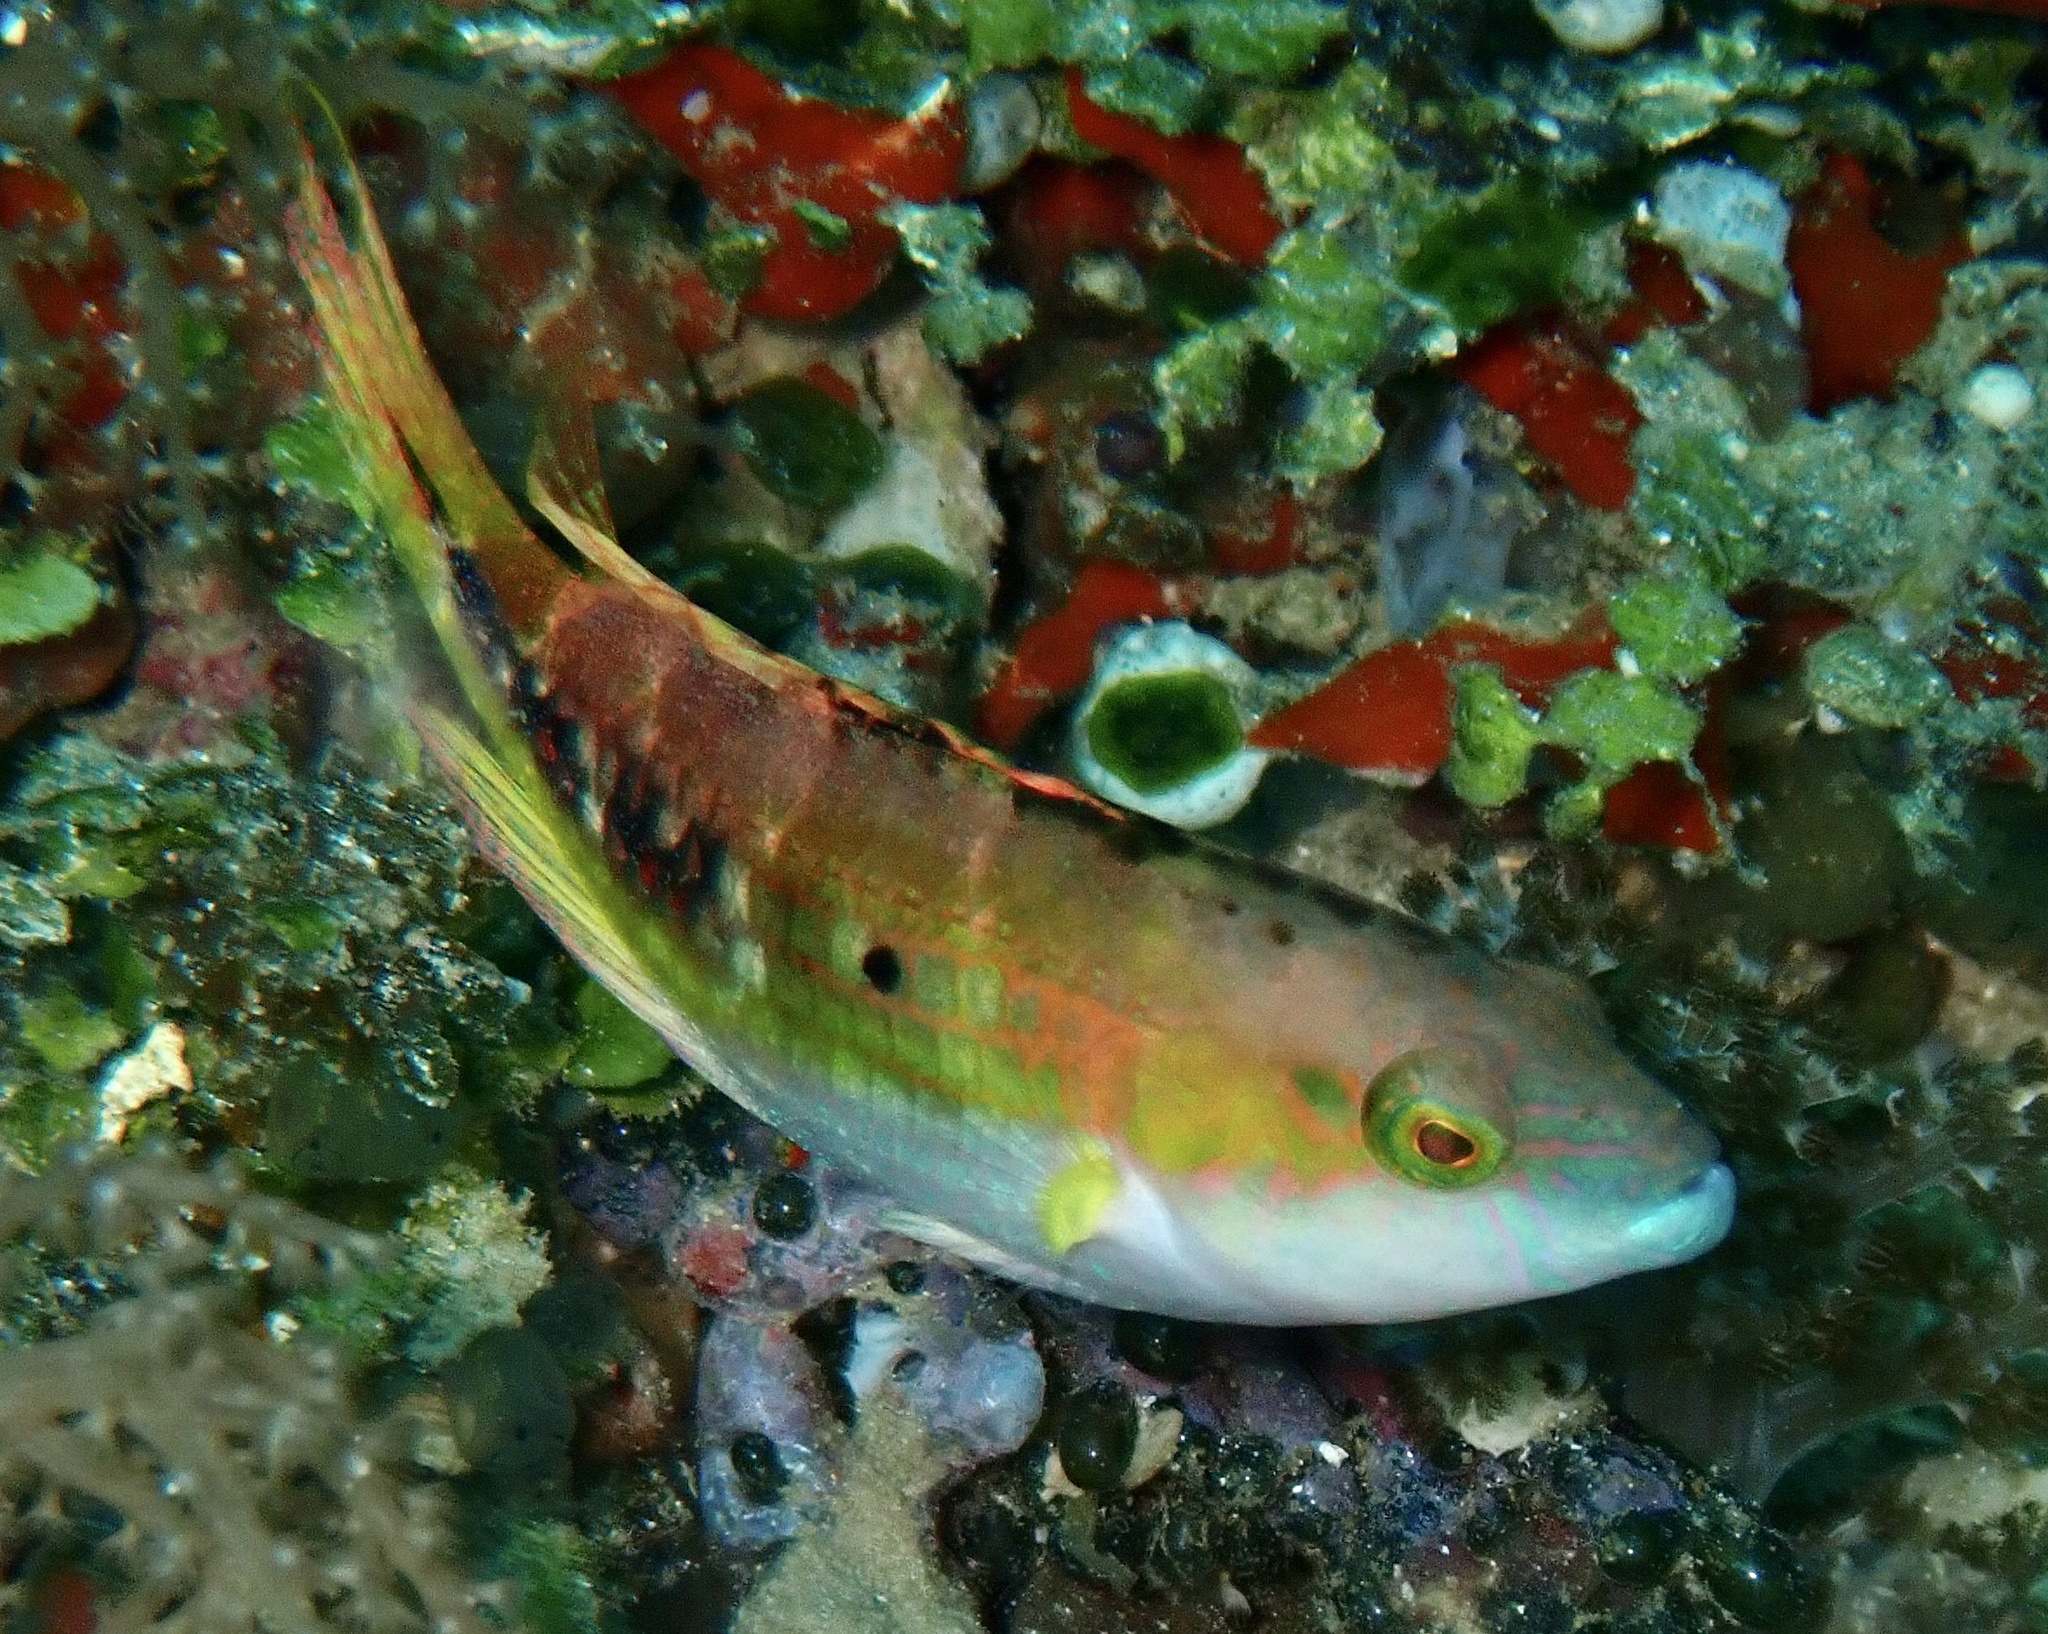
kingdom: Animalia
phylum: Chordata
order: Perciformes
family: Labridae
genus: Oxycheilinus
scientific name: Oxycheilinus bimaculatus
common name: Comettailed wrasse
